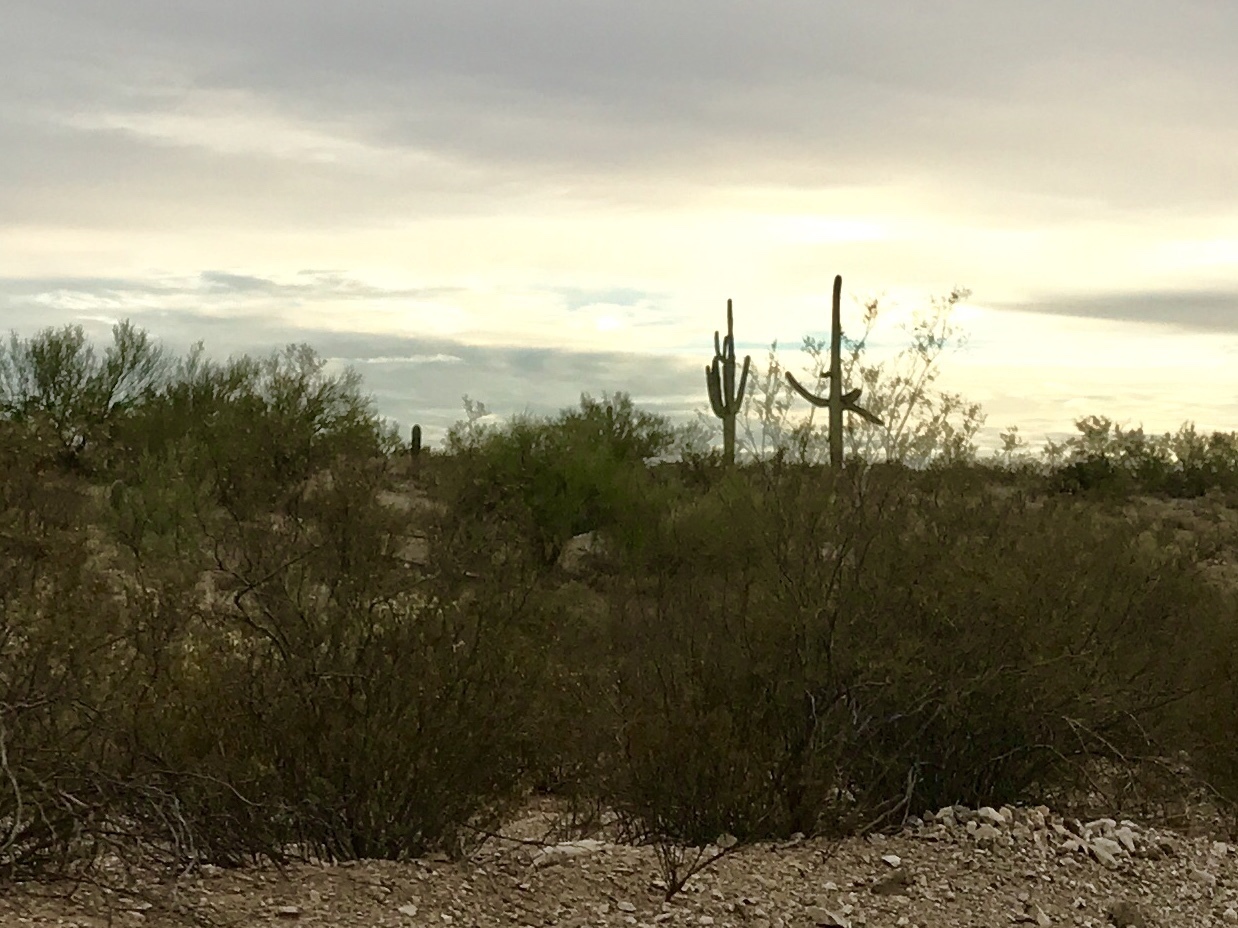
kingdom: Plantae
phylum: Tracheophyta
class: Magnoliopsida
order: Zygophyllales
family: Zygophyllaceae
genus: Larrea
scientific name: Larrea tridentata
